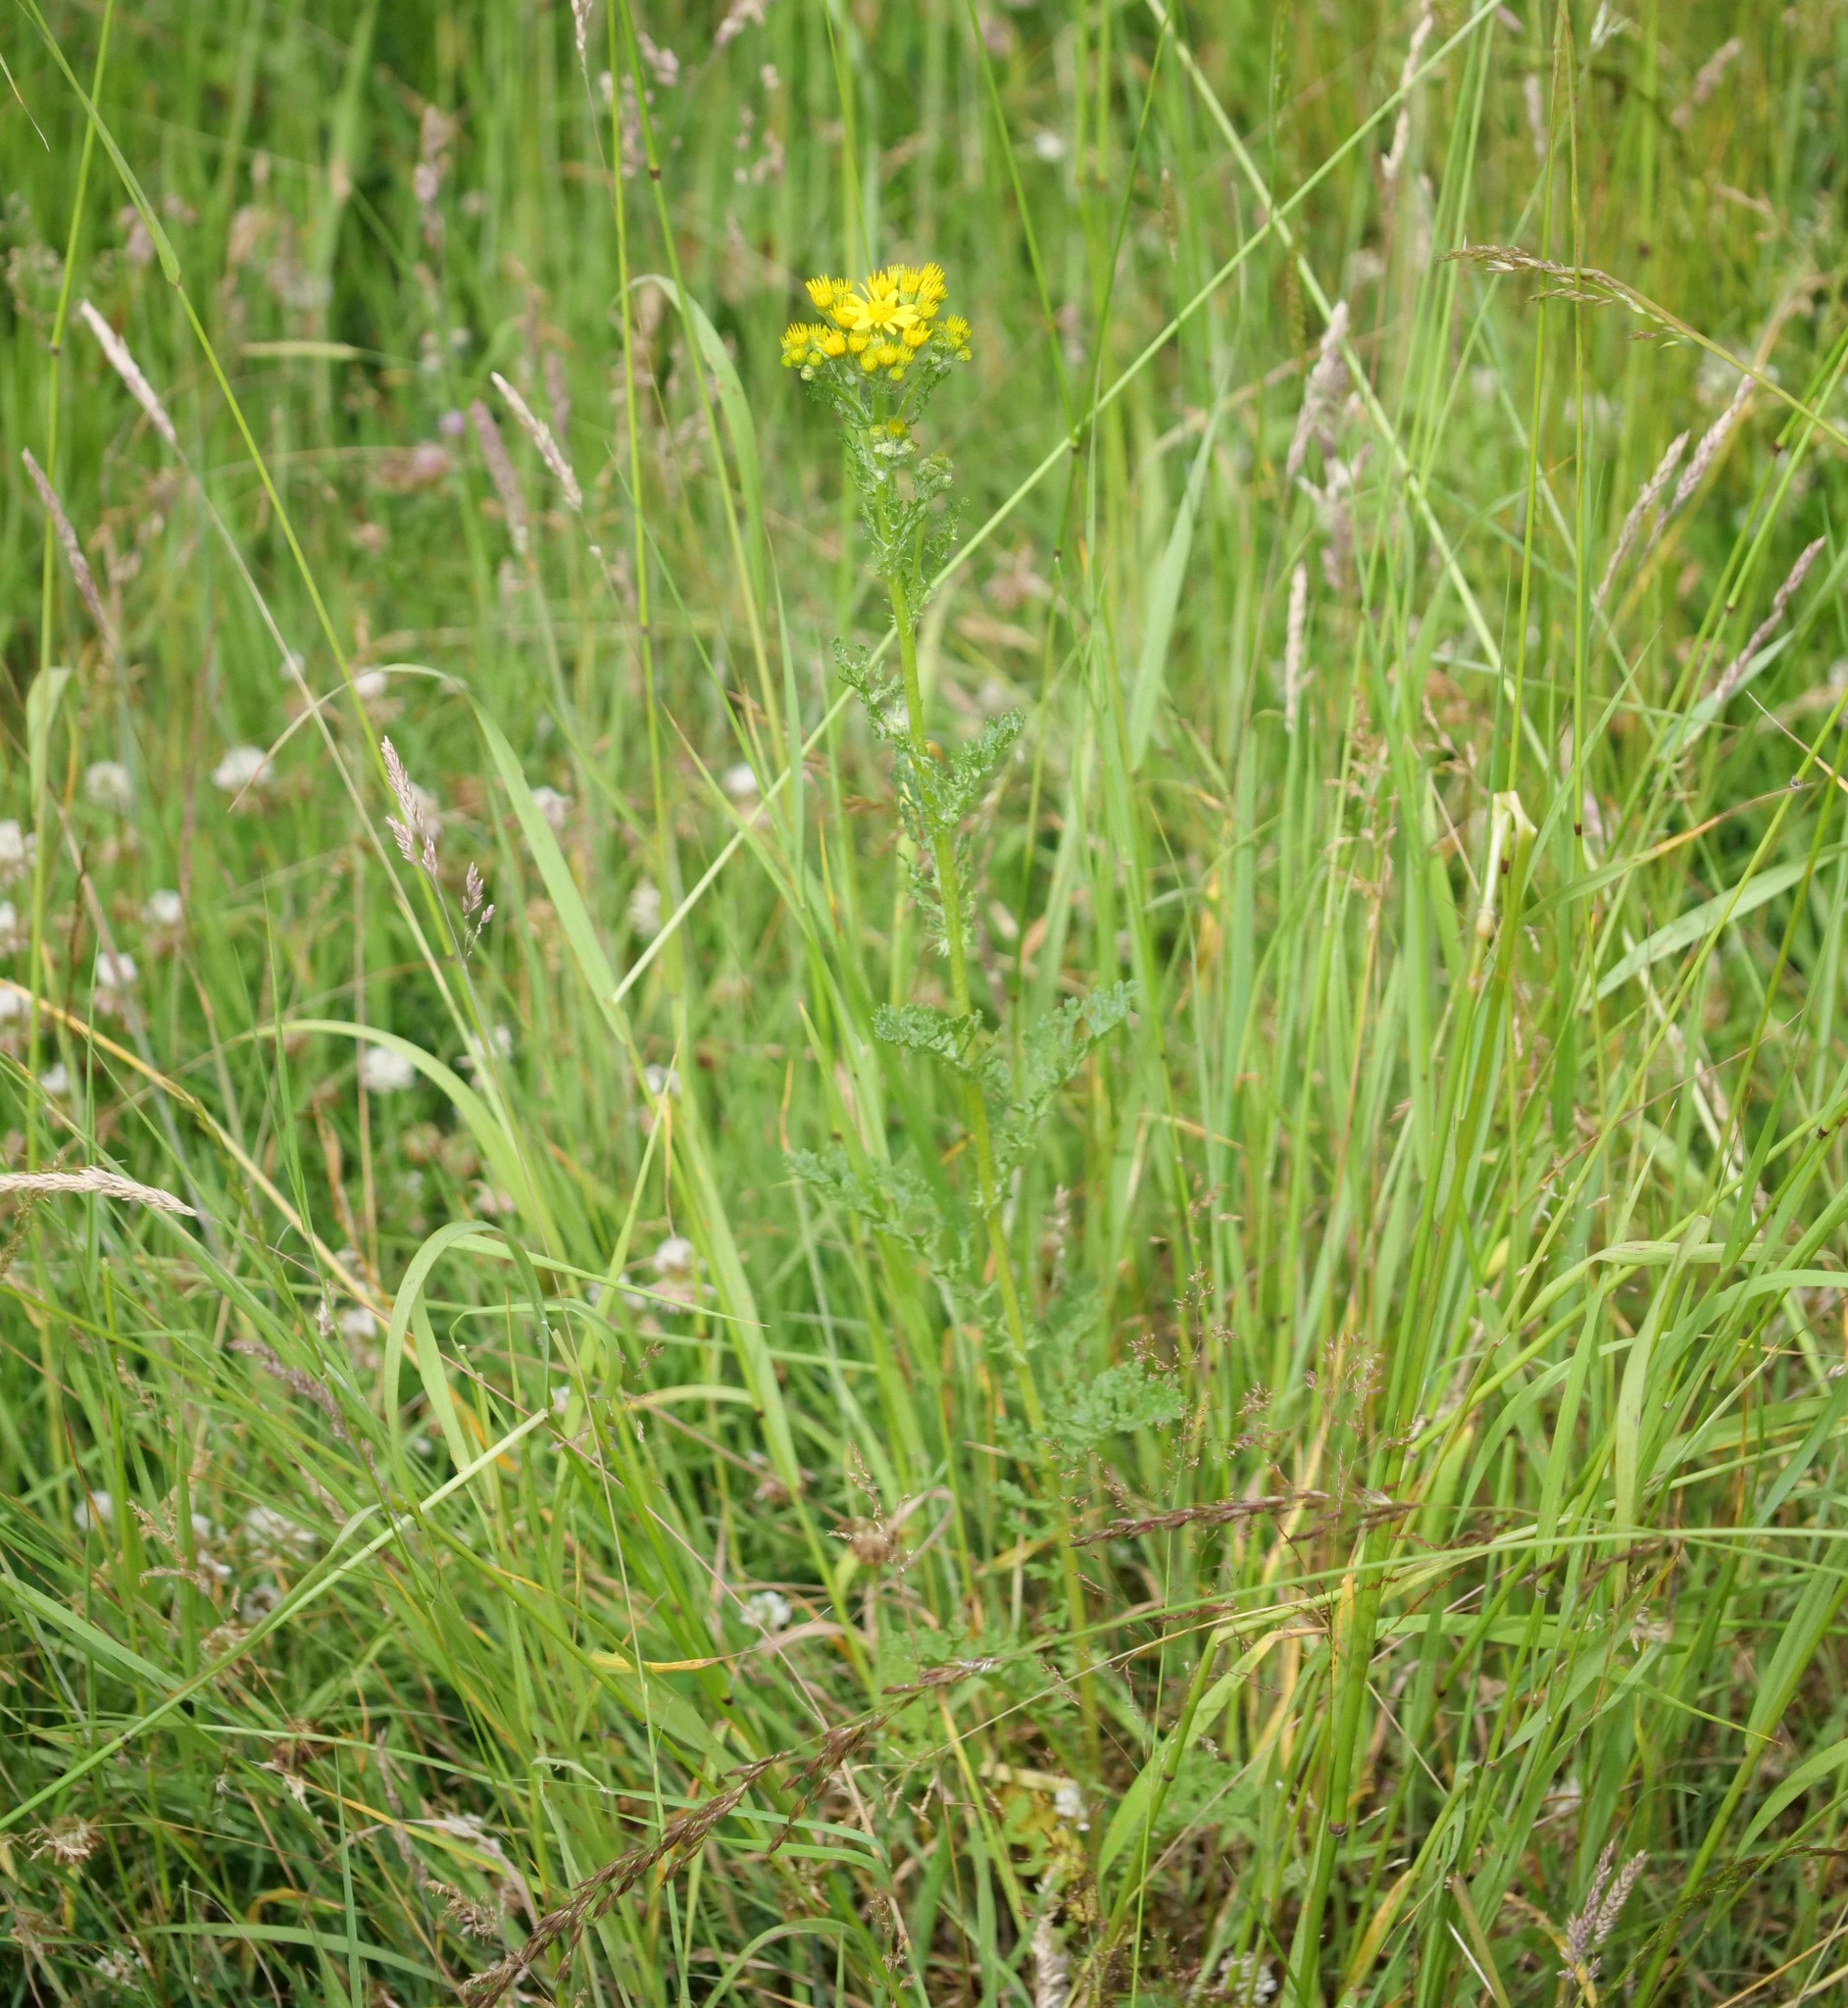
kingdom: Plantae
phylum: Tracheophyta
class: Magnoliopsida
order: Asterales
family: Asteraceae
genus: Jacobaea
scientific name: Jacobaea vulgaris
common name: Stinking willie
